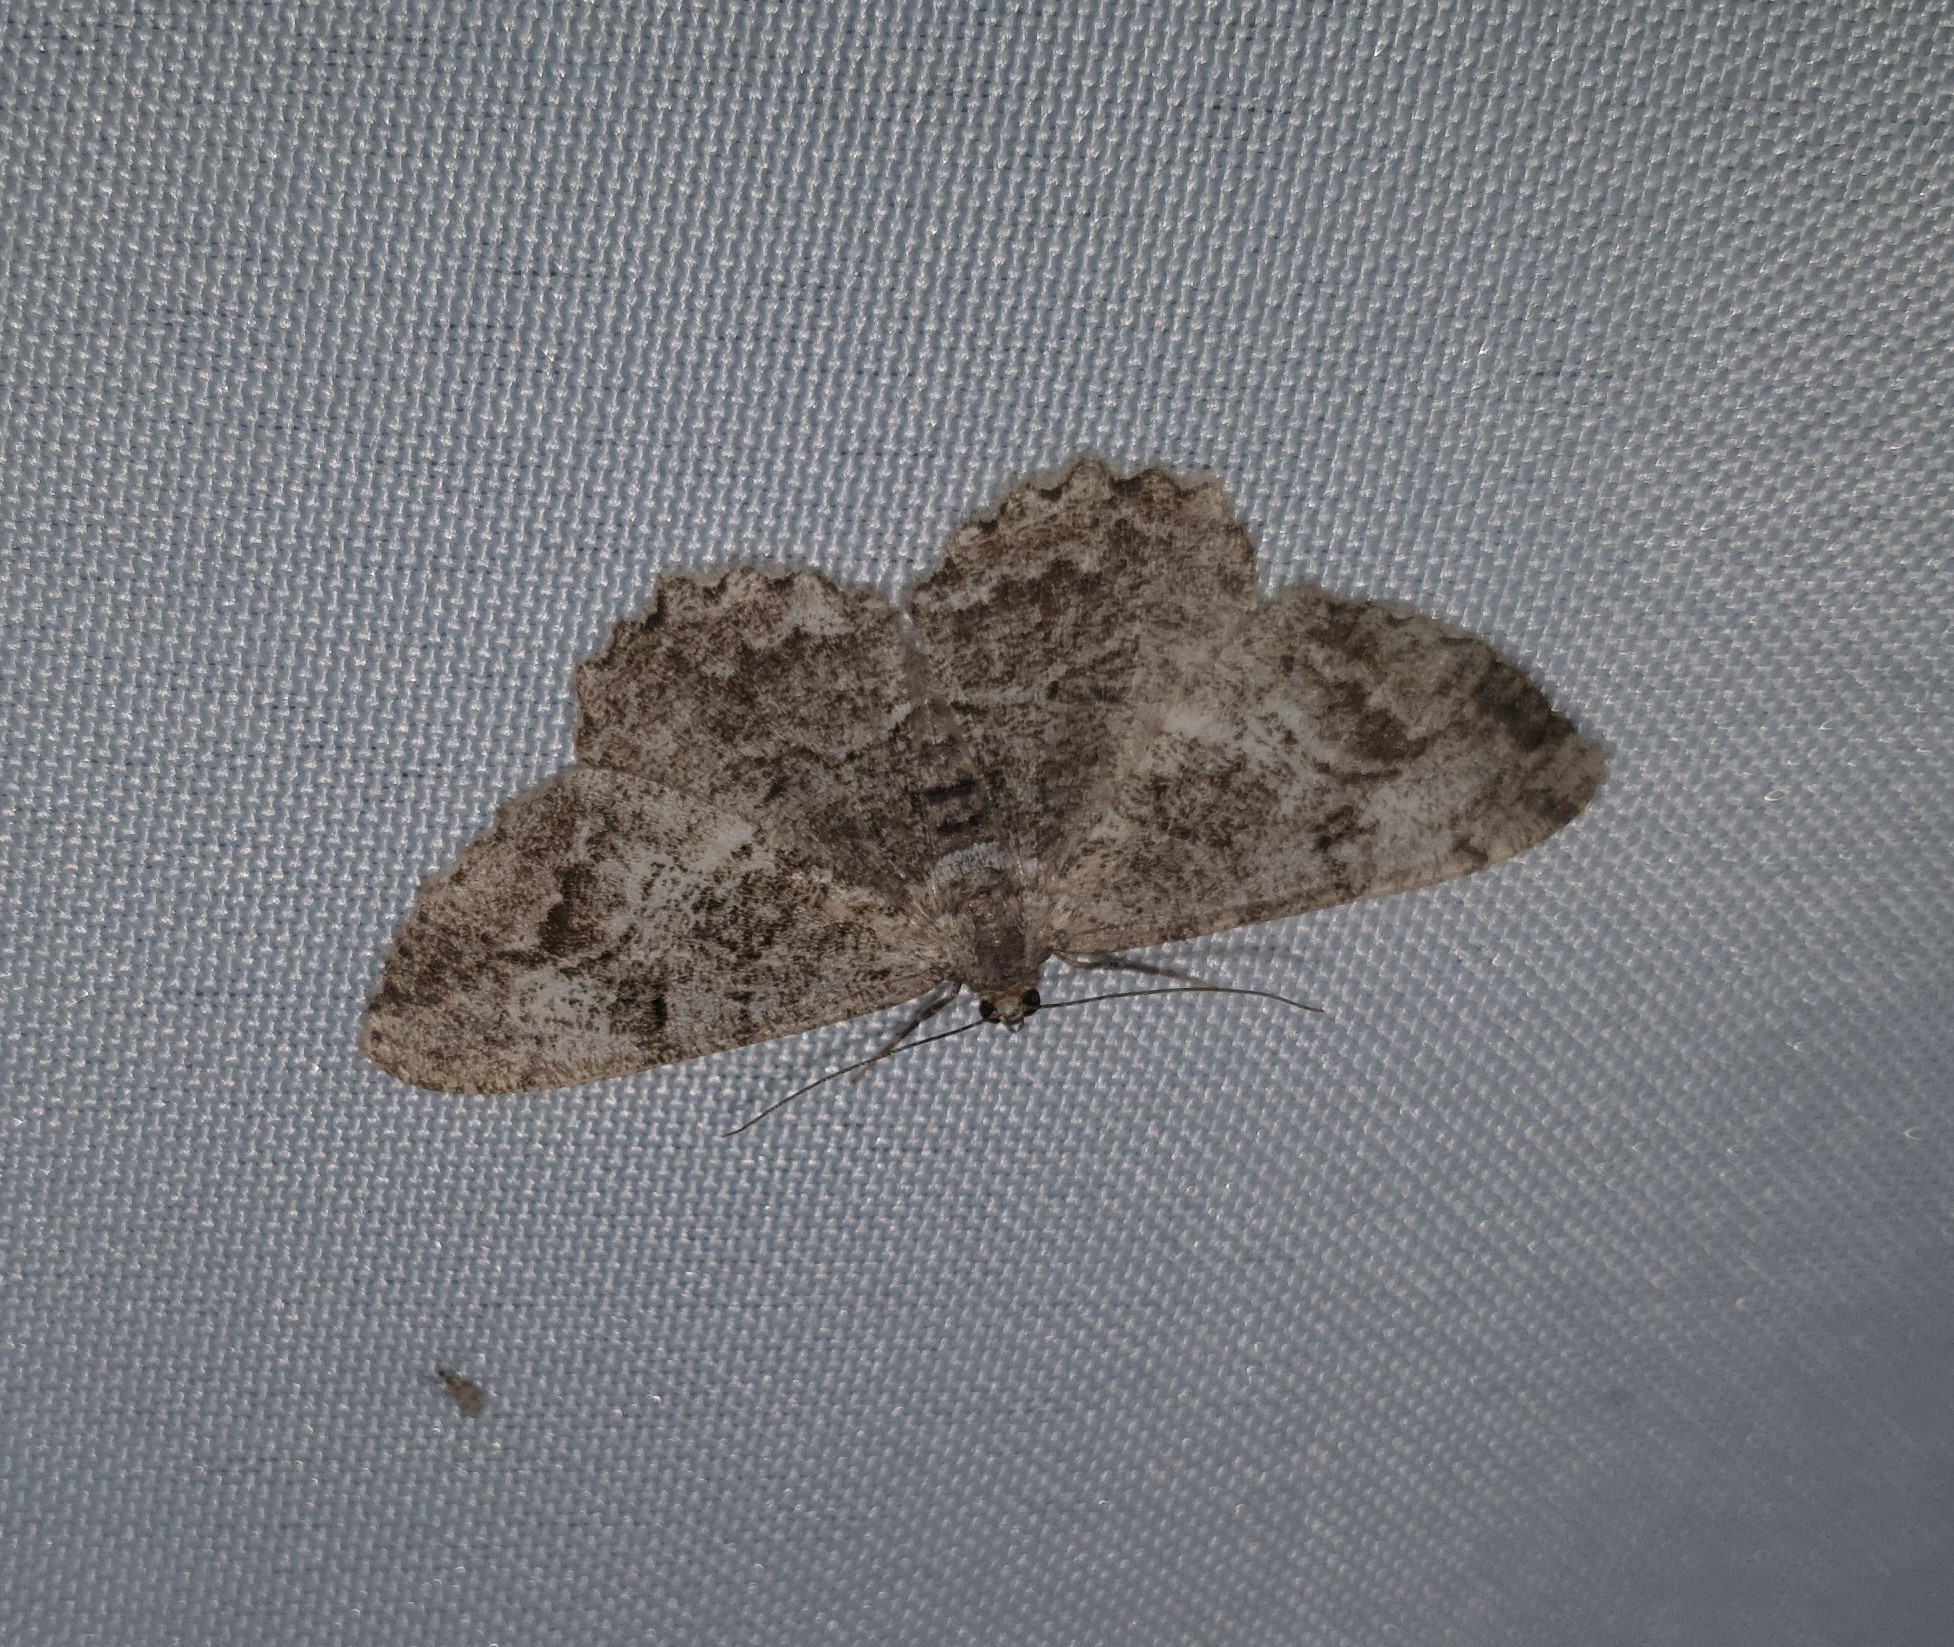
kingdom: Animalia
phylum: Arthropoda
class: Insecta
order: Lepidoptera
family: Geometridae
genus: Alcis
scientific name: Alcis repandata
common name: Mottled beauty
